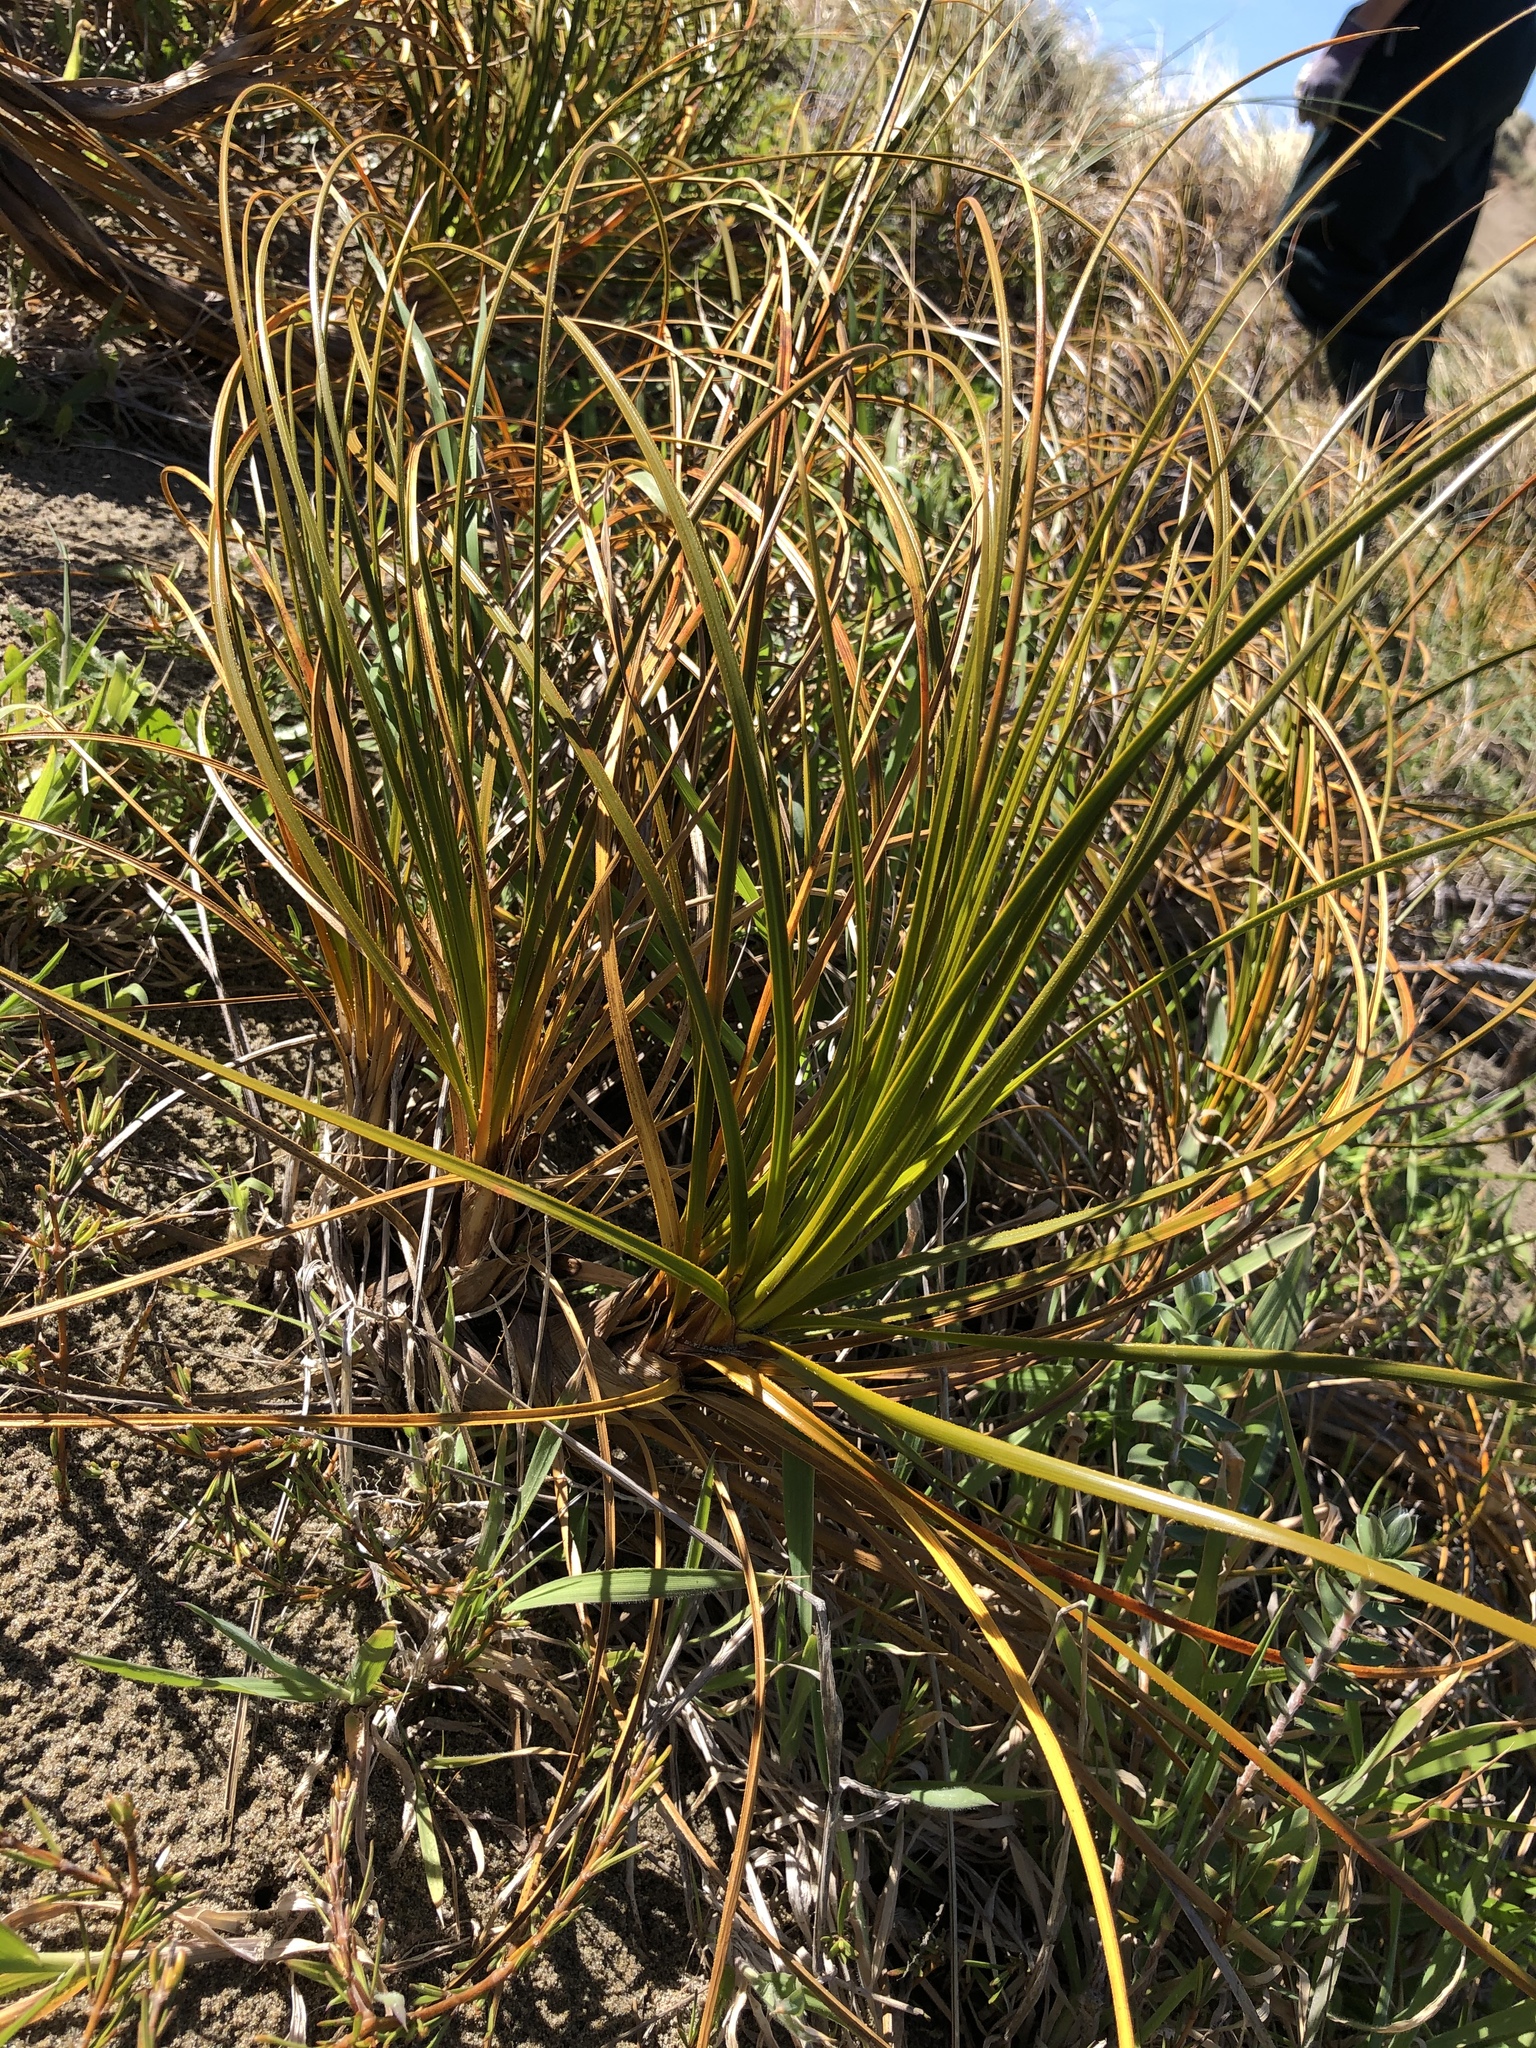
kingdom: Plantae
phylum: Tracheophyta
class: Liliopsida
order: Poales
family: Cyperaceae
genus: Ficinia
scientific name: Ficinia spiralis
